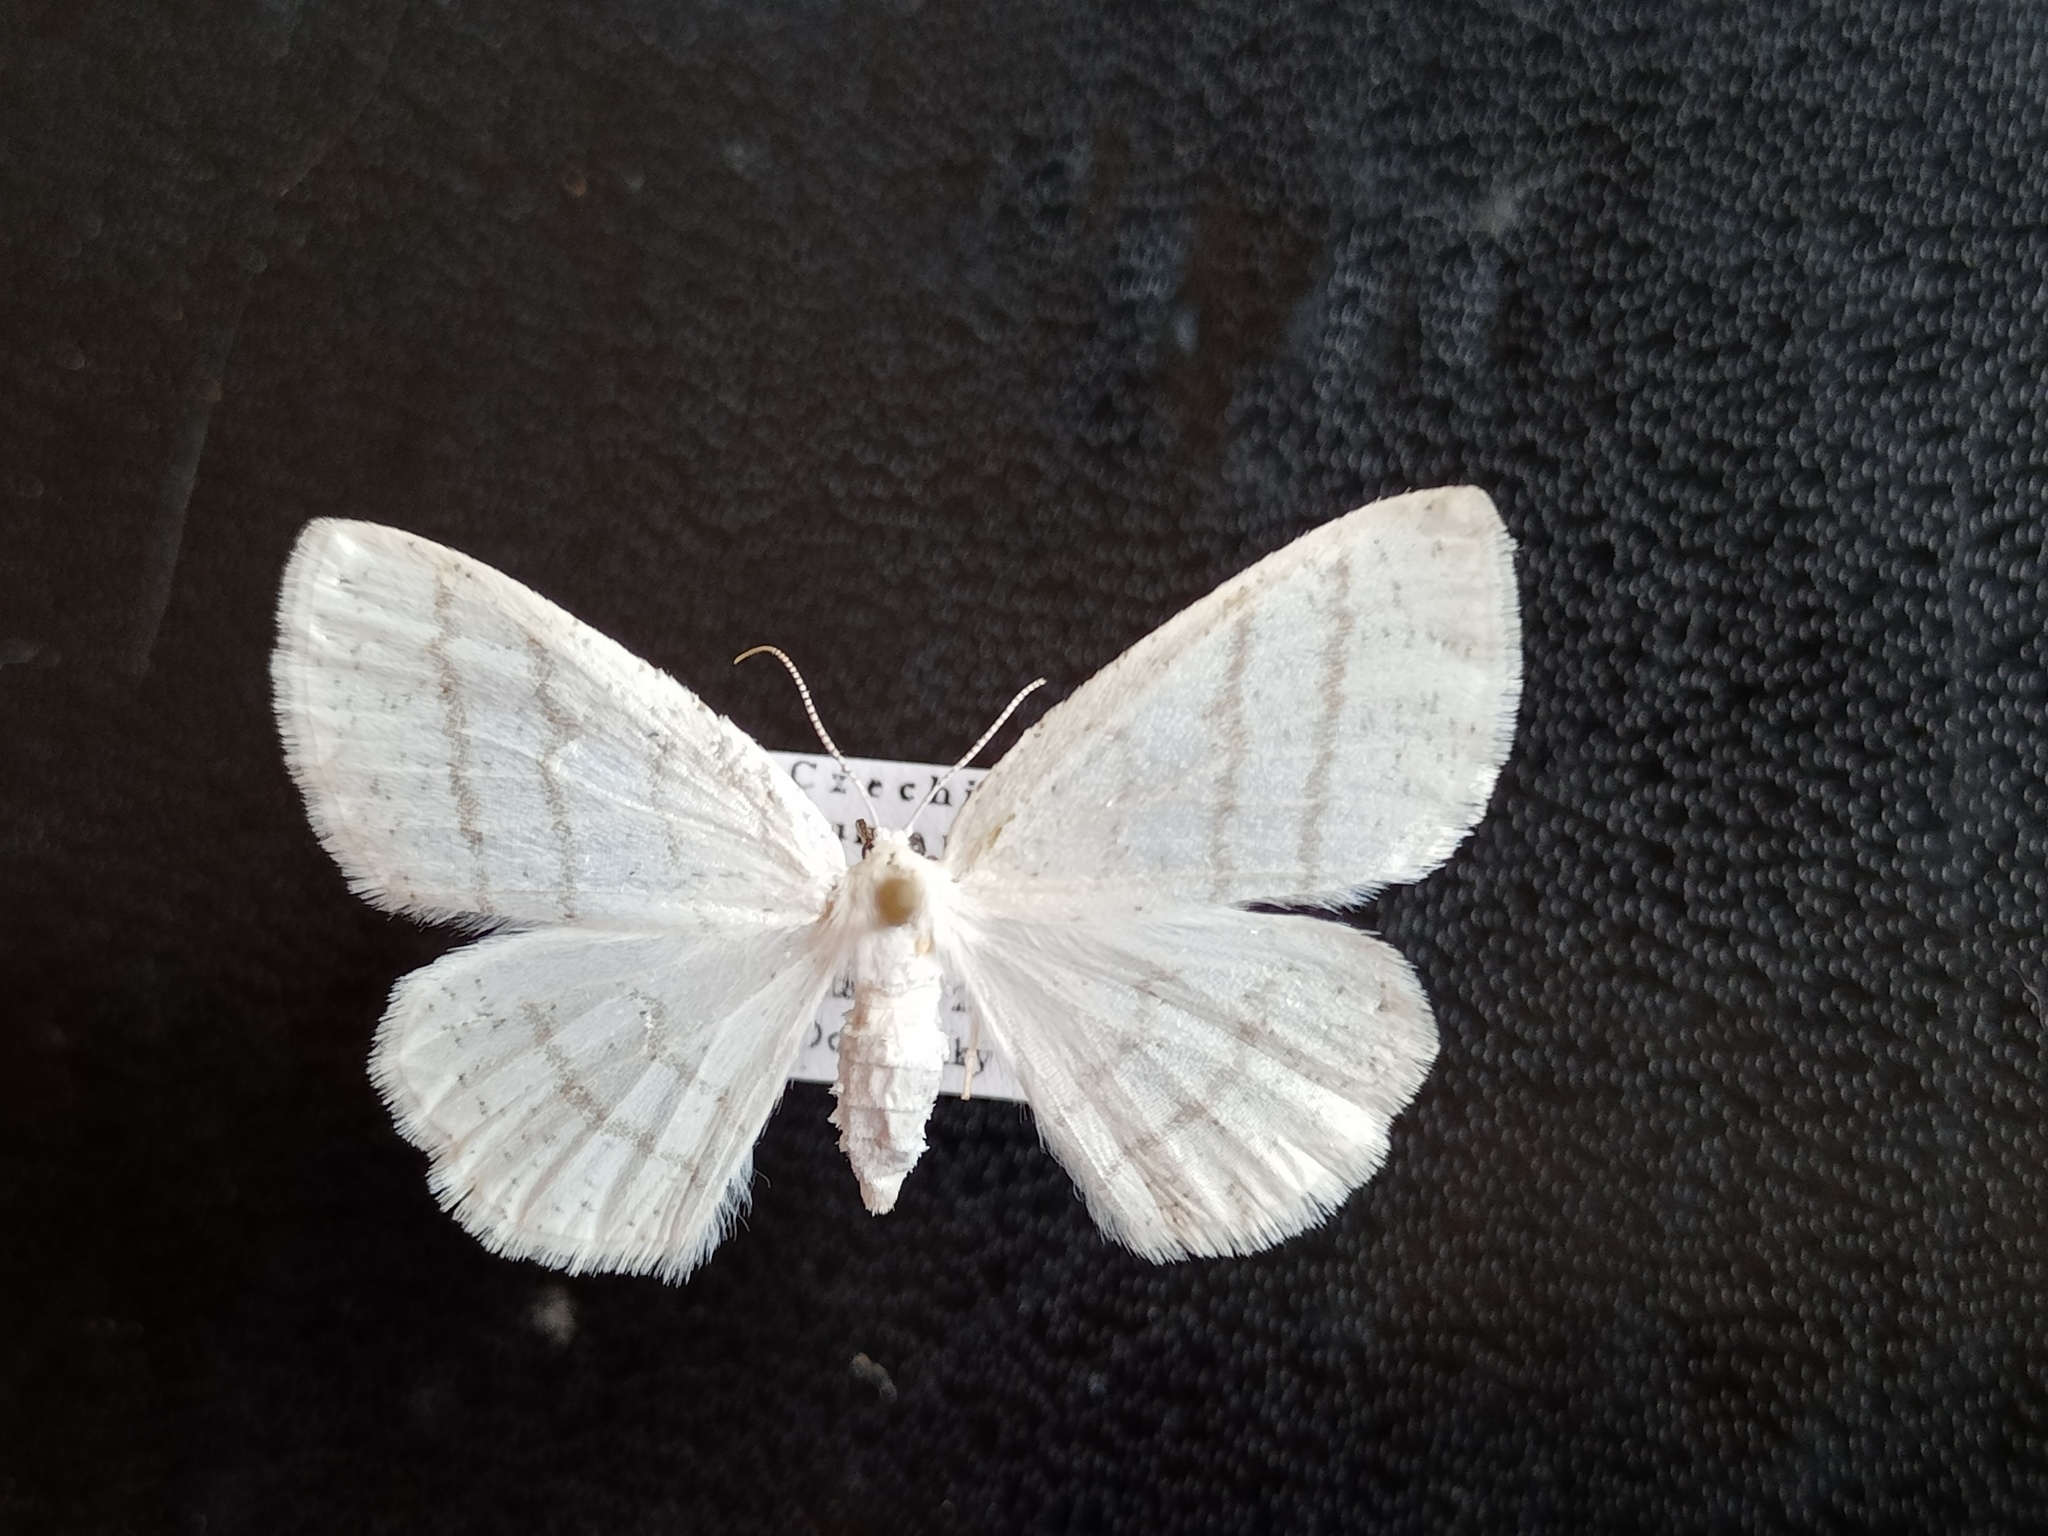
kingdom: Animalia
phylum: Arthropoda
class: Insecta
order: Lepidoptera
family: Geometridae
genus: Cabera
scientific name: Cabera pusaria
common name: Common white wave
